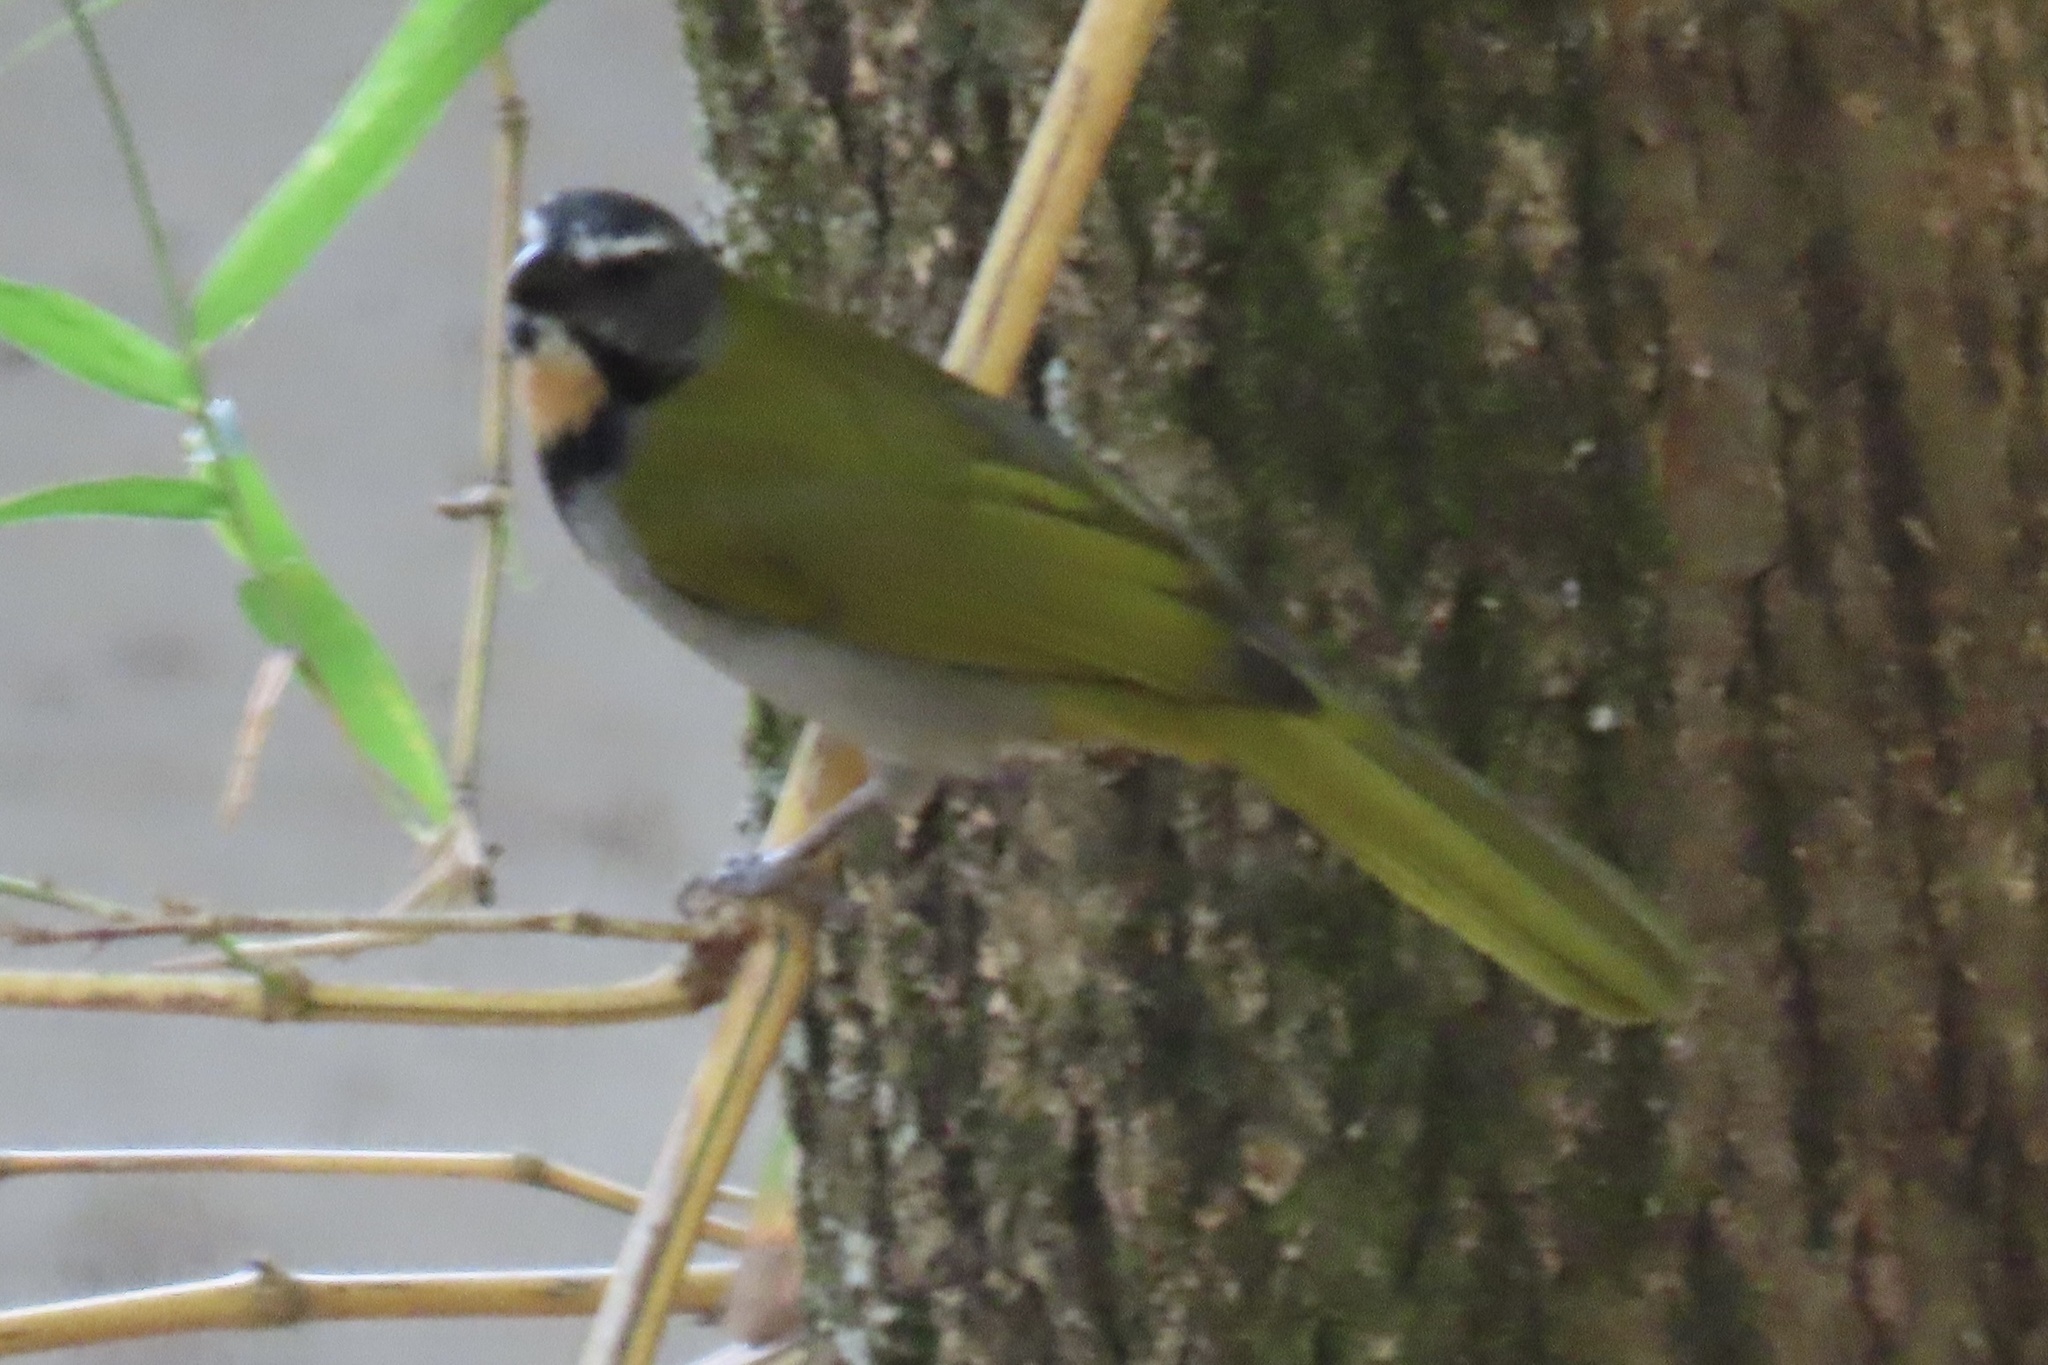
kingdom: Animalia
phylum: Chordata
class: Aves
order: Passeriformes
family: Thraupidae
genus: Saltator
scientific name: Saltator maximus
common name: Buff-throated saltator
